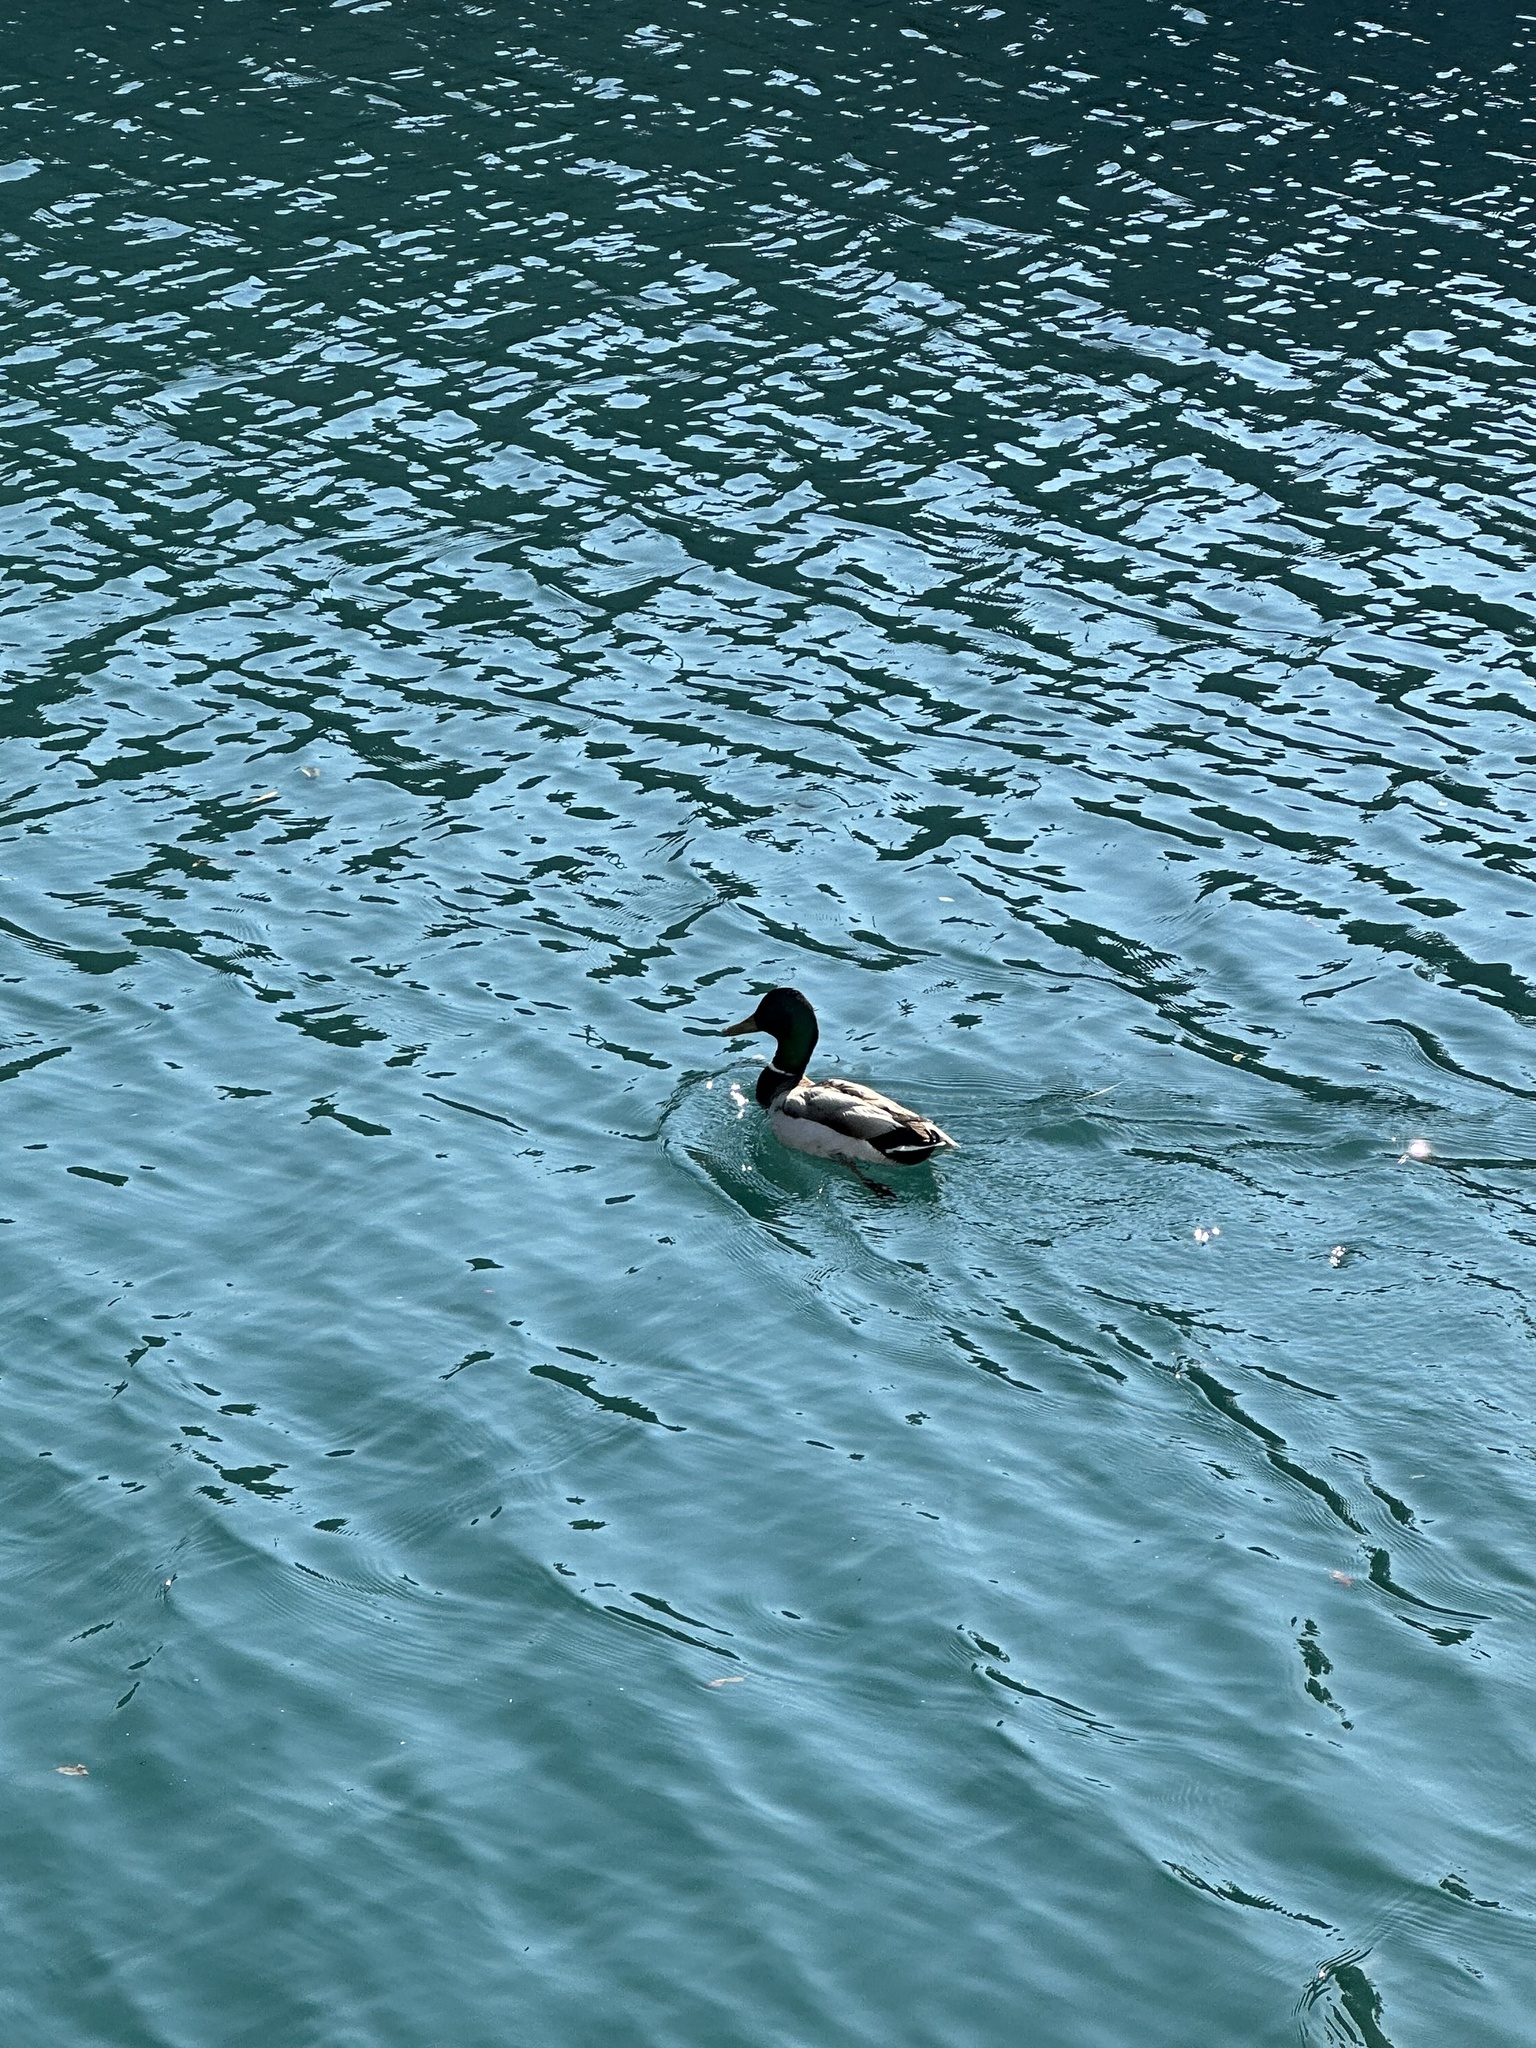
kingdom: Animalia
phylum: Chordata
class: Aves
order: Anseriformes
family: Anatidae
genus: Anas
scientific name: Anas platyrhynchos
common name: Mallard
